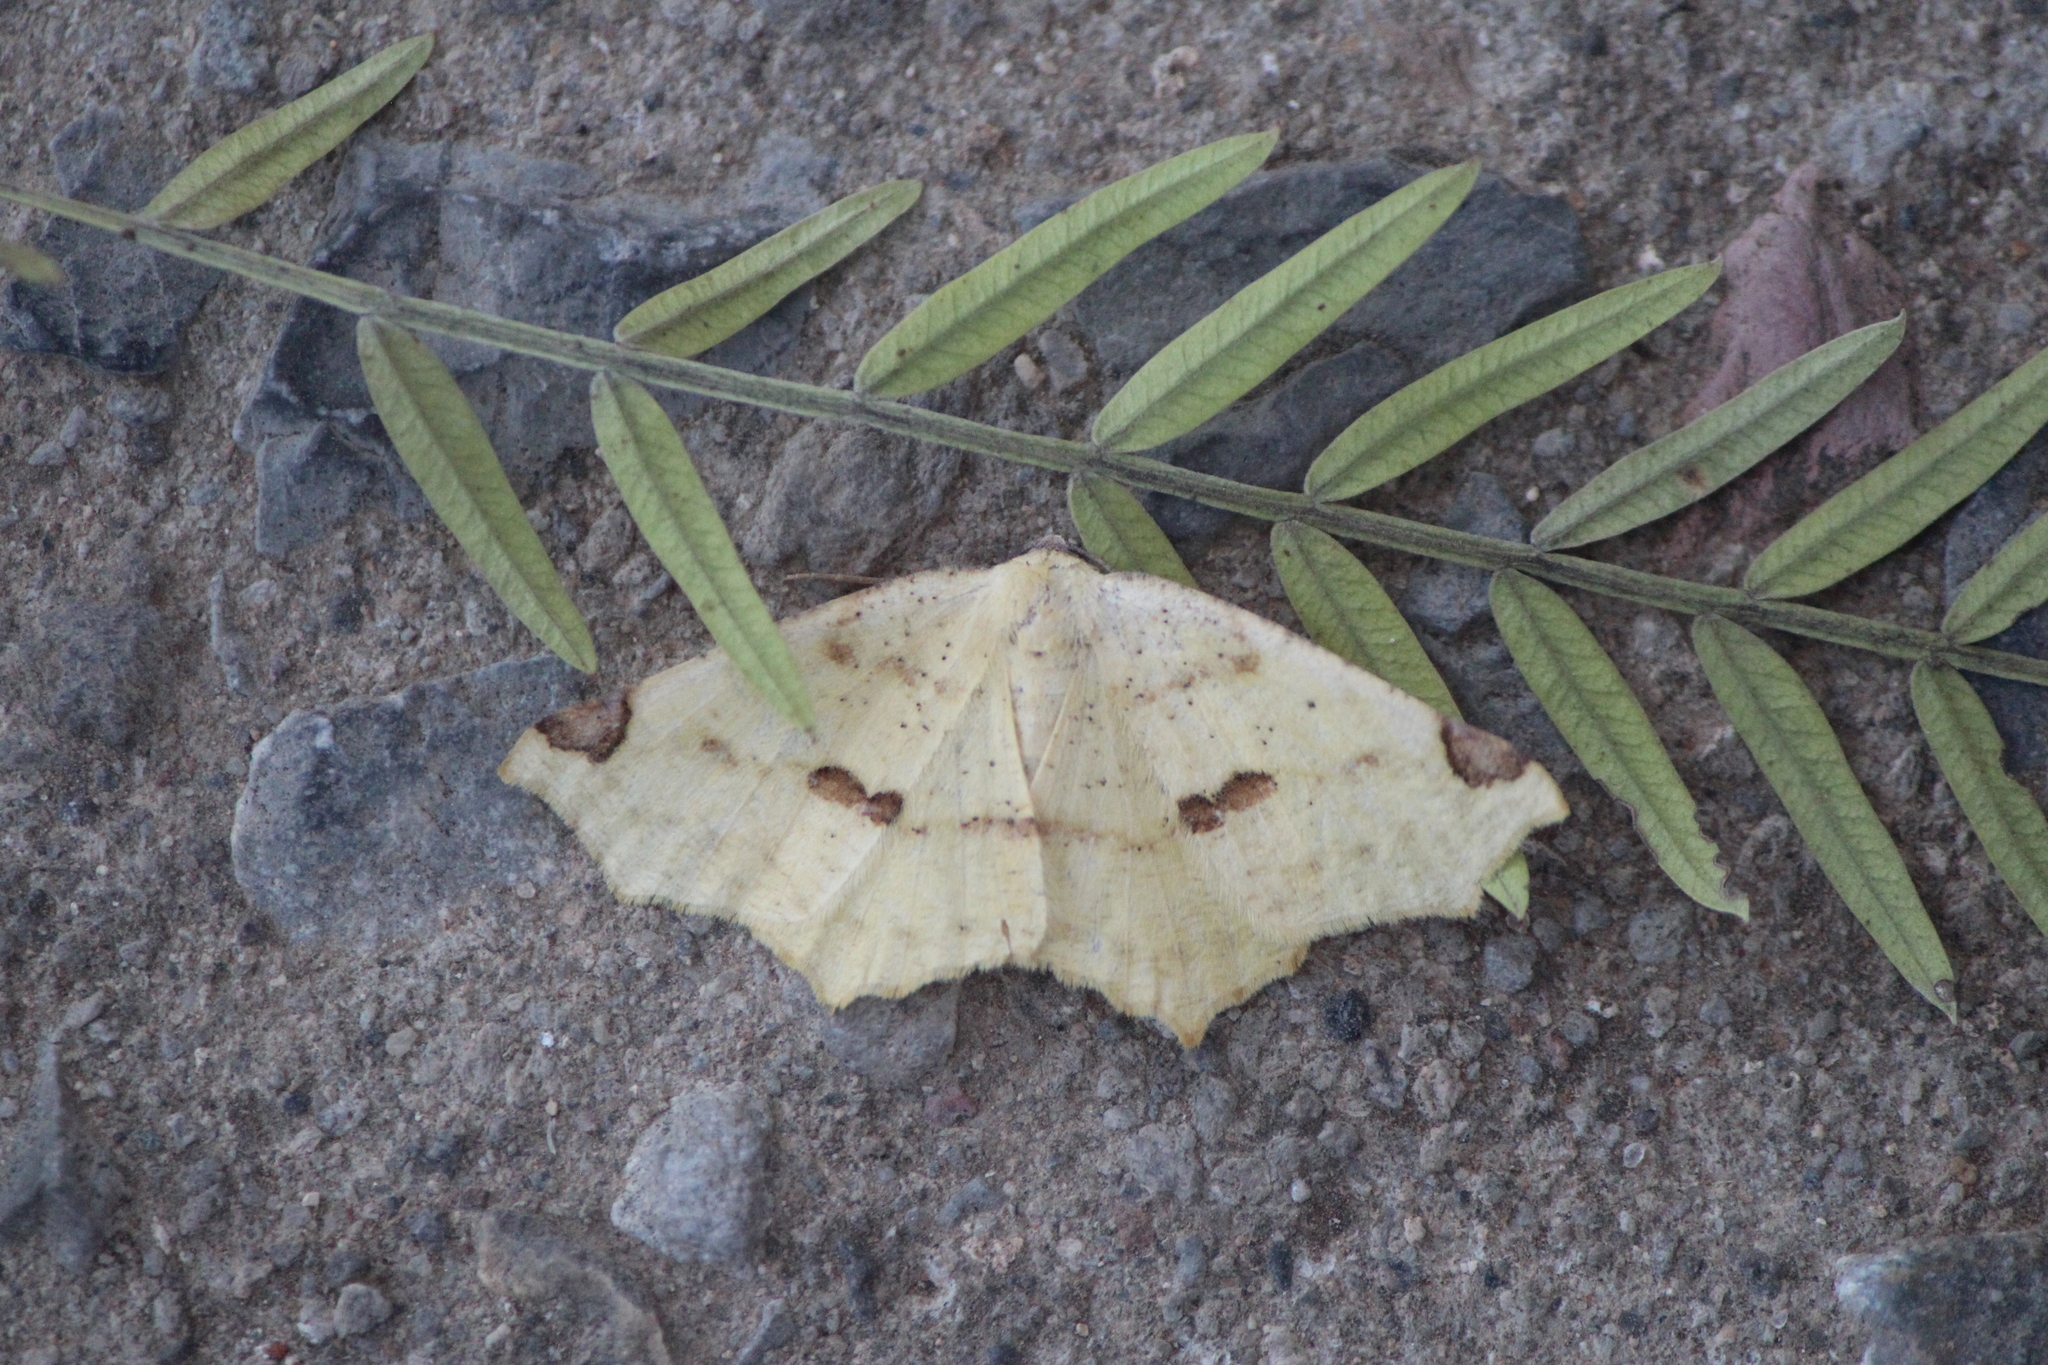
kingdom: Animalia
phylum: Arthropoda
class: Insecta
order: Lepidoptera
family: Geometridae
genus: Antepione
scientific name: Antepione thisoaria
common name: Variable antipione
